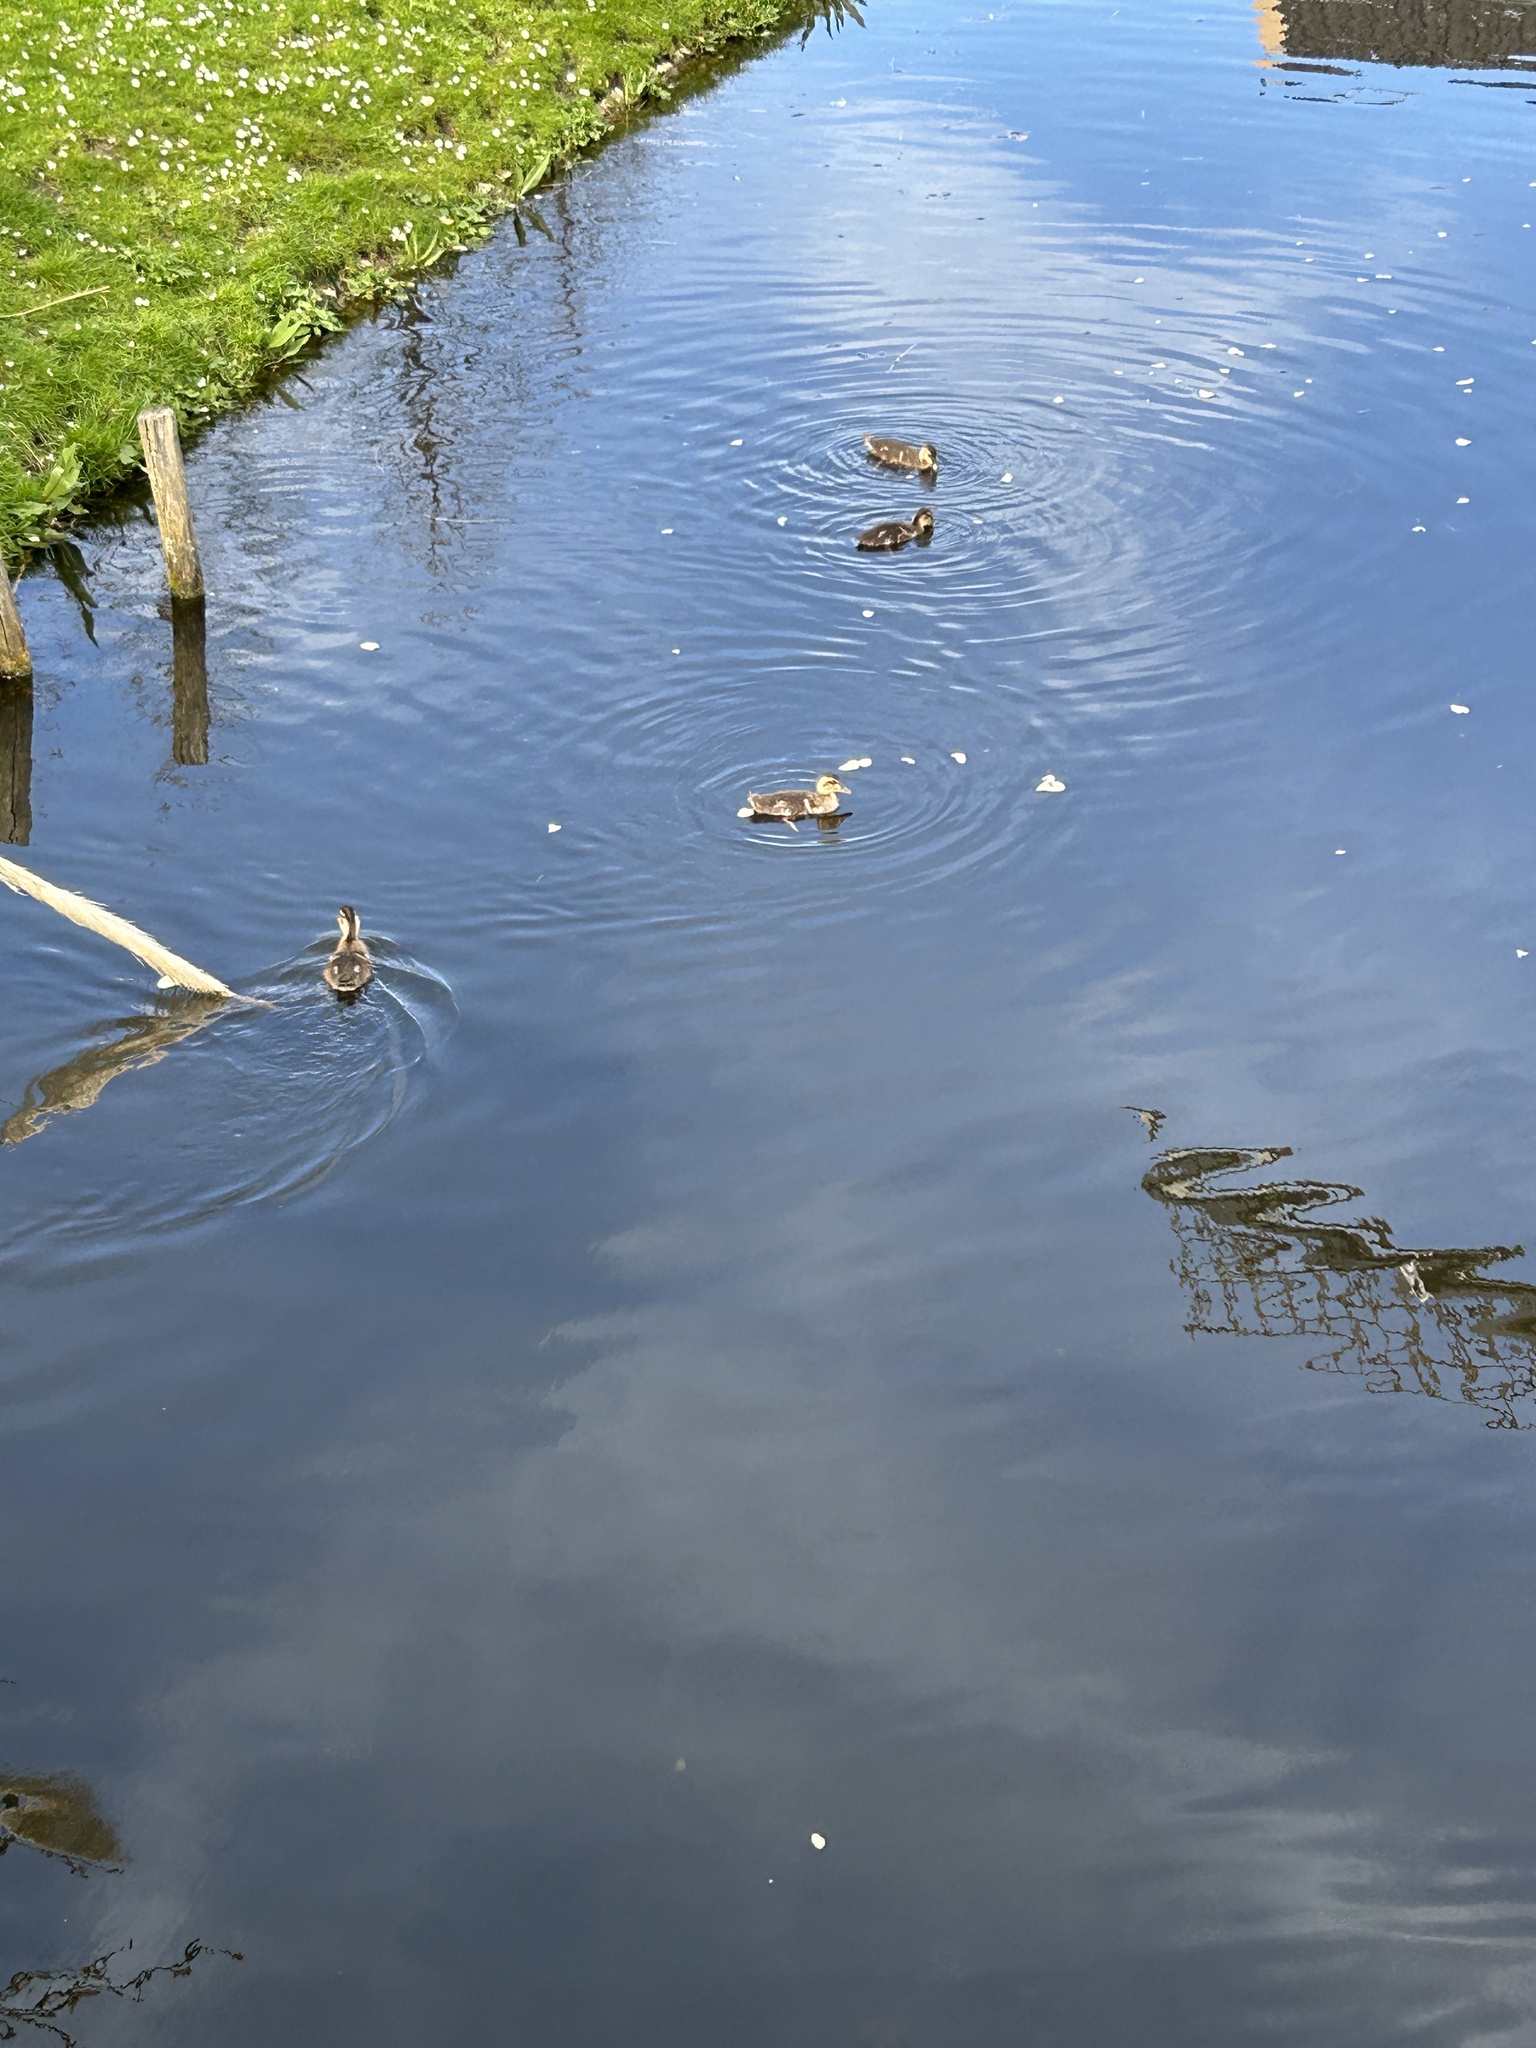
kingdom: Animalia
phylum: Chordata
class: Aves
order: Anseriformes
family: Anatidae
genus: Anas
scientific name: Anas platyrhynchos
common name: Mallard
